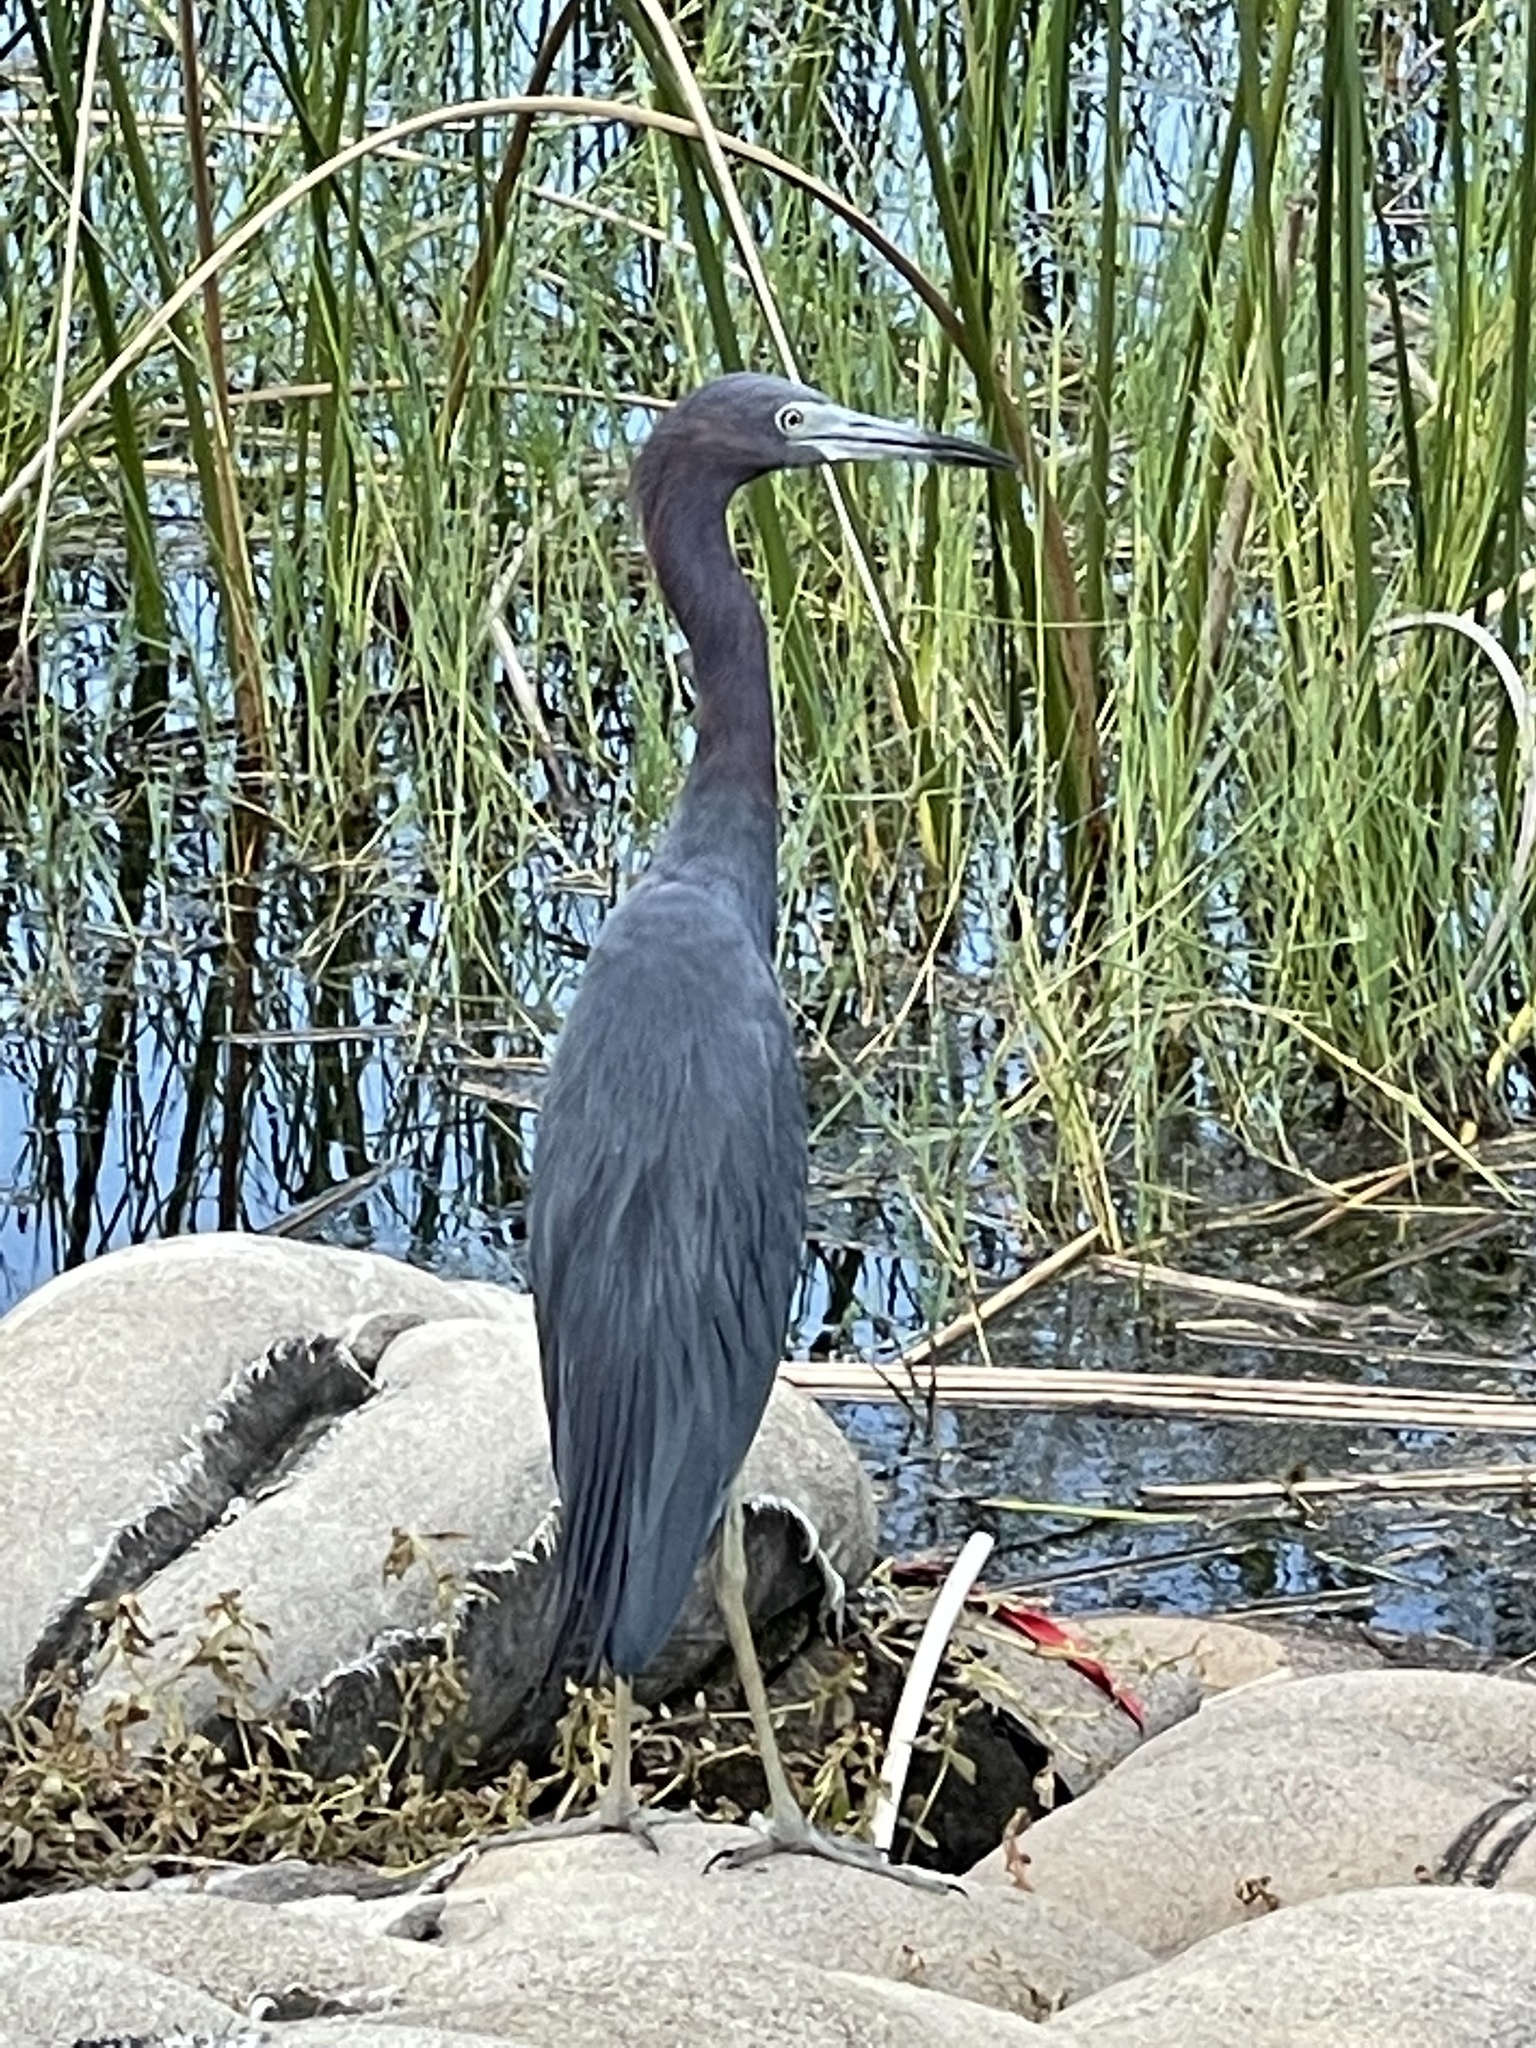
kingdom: Animalia
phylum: Chordata
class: Aves
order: Pelecaniformes
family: Ardeidae
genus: Egretta
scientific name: Egretta caerulea
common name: Little blue heron
